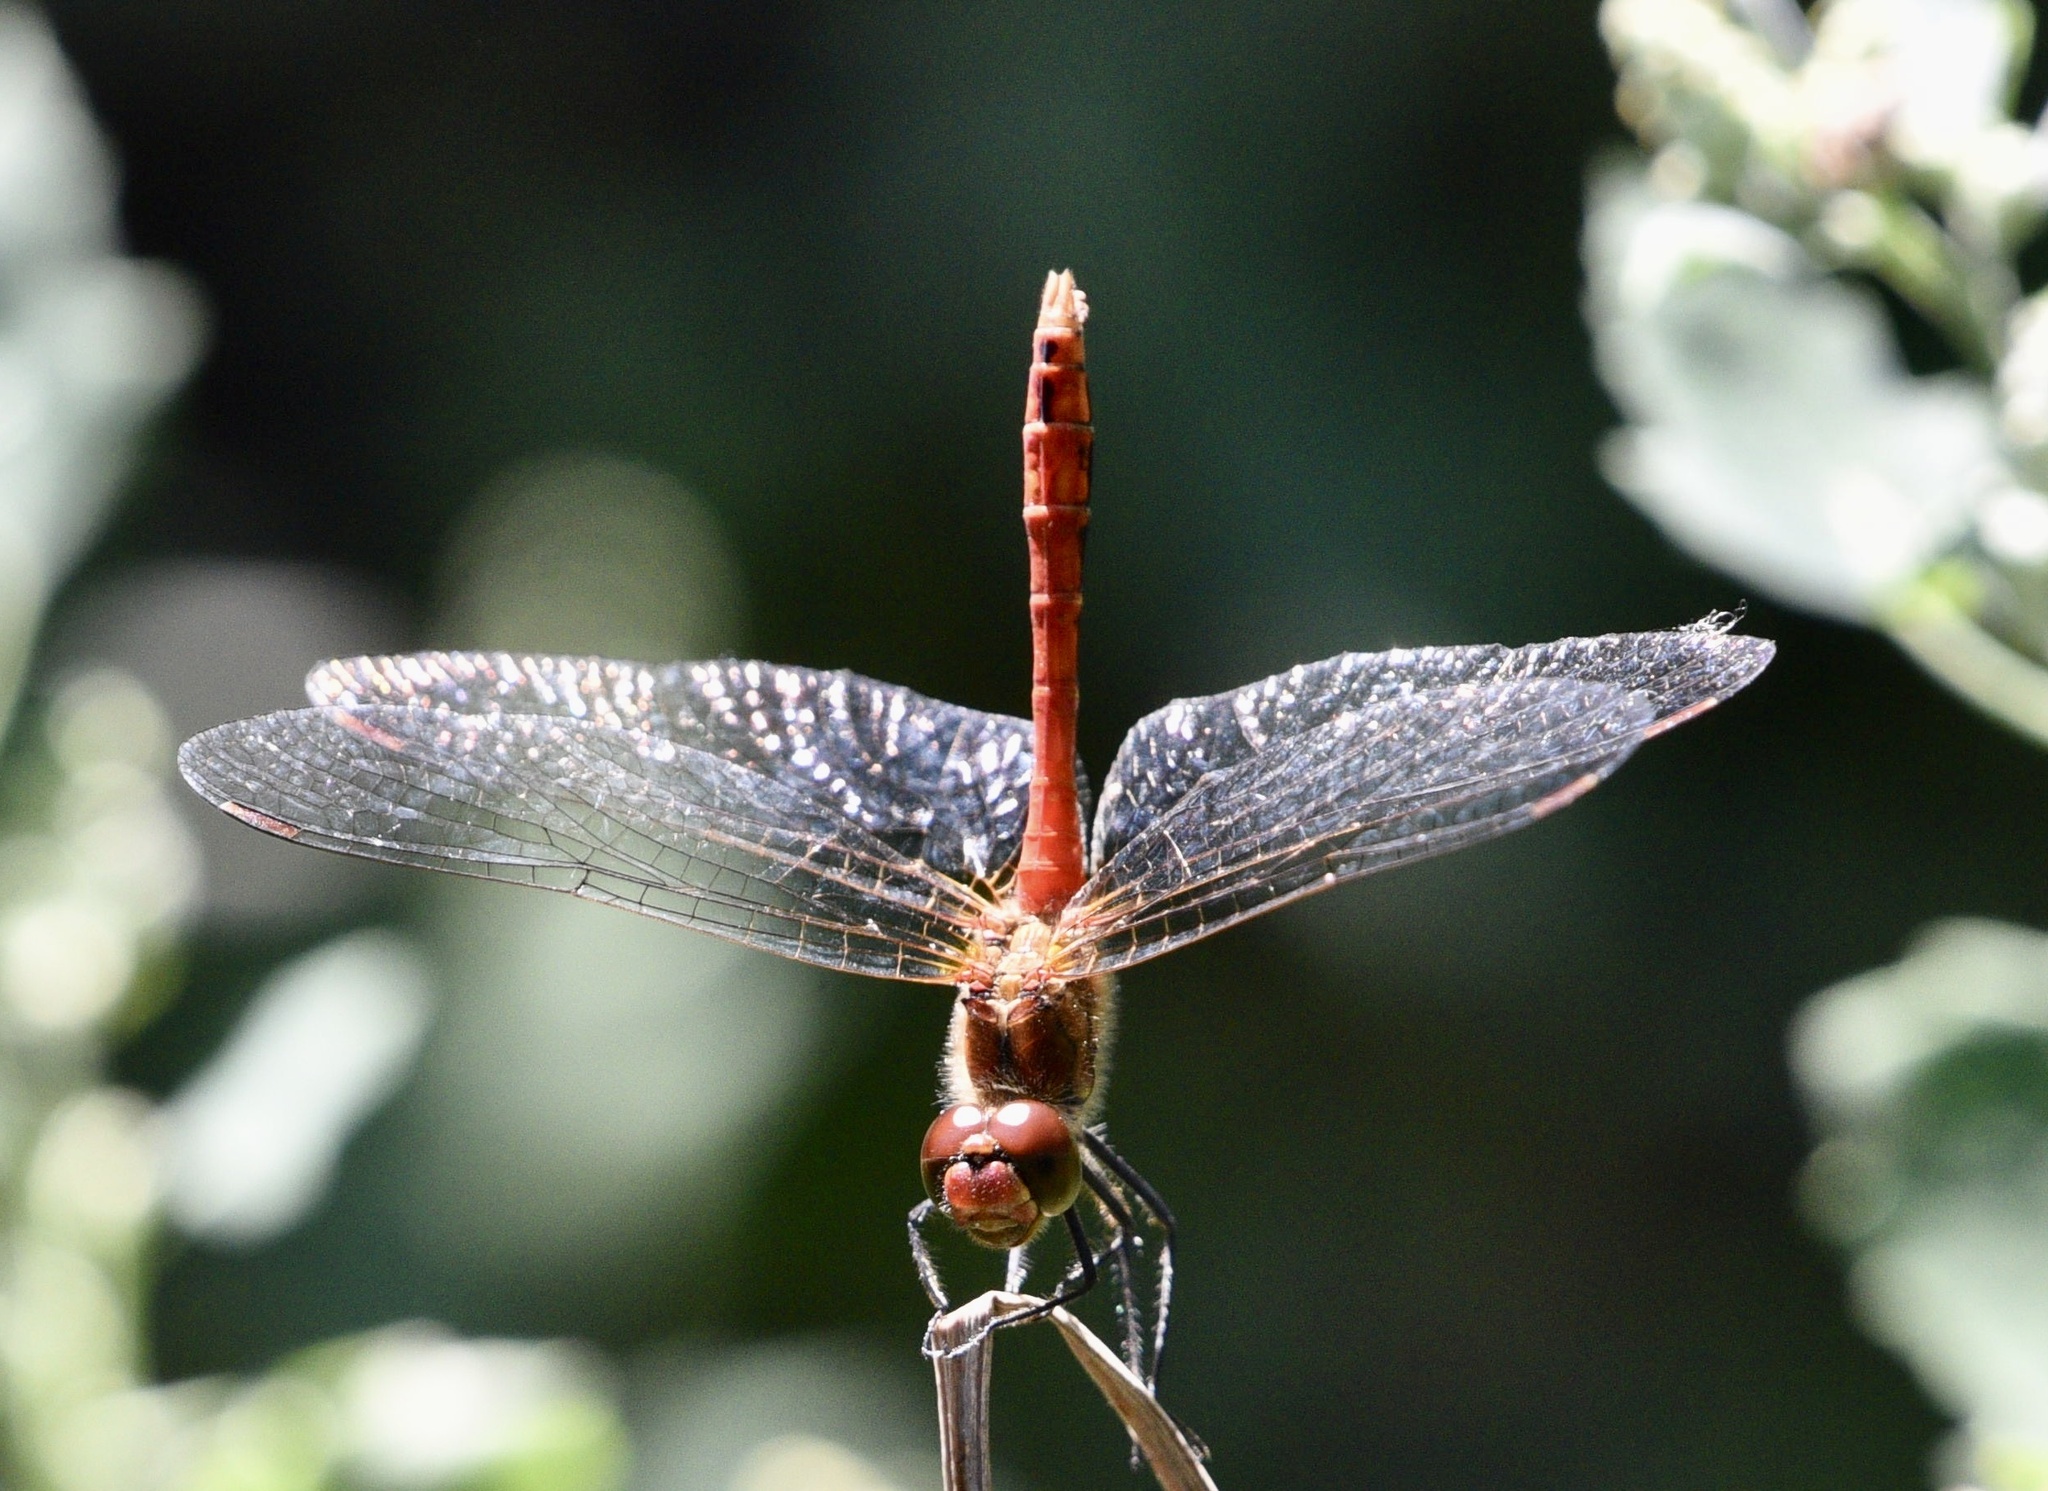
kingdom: Animalia
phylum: Arthropoda
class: Insecta
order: Odonata
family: Libellulidae
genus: Sympetrum
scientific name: Sympetrum sanguineum
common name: Ruddy darter
